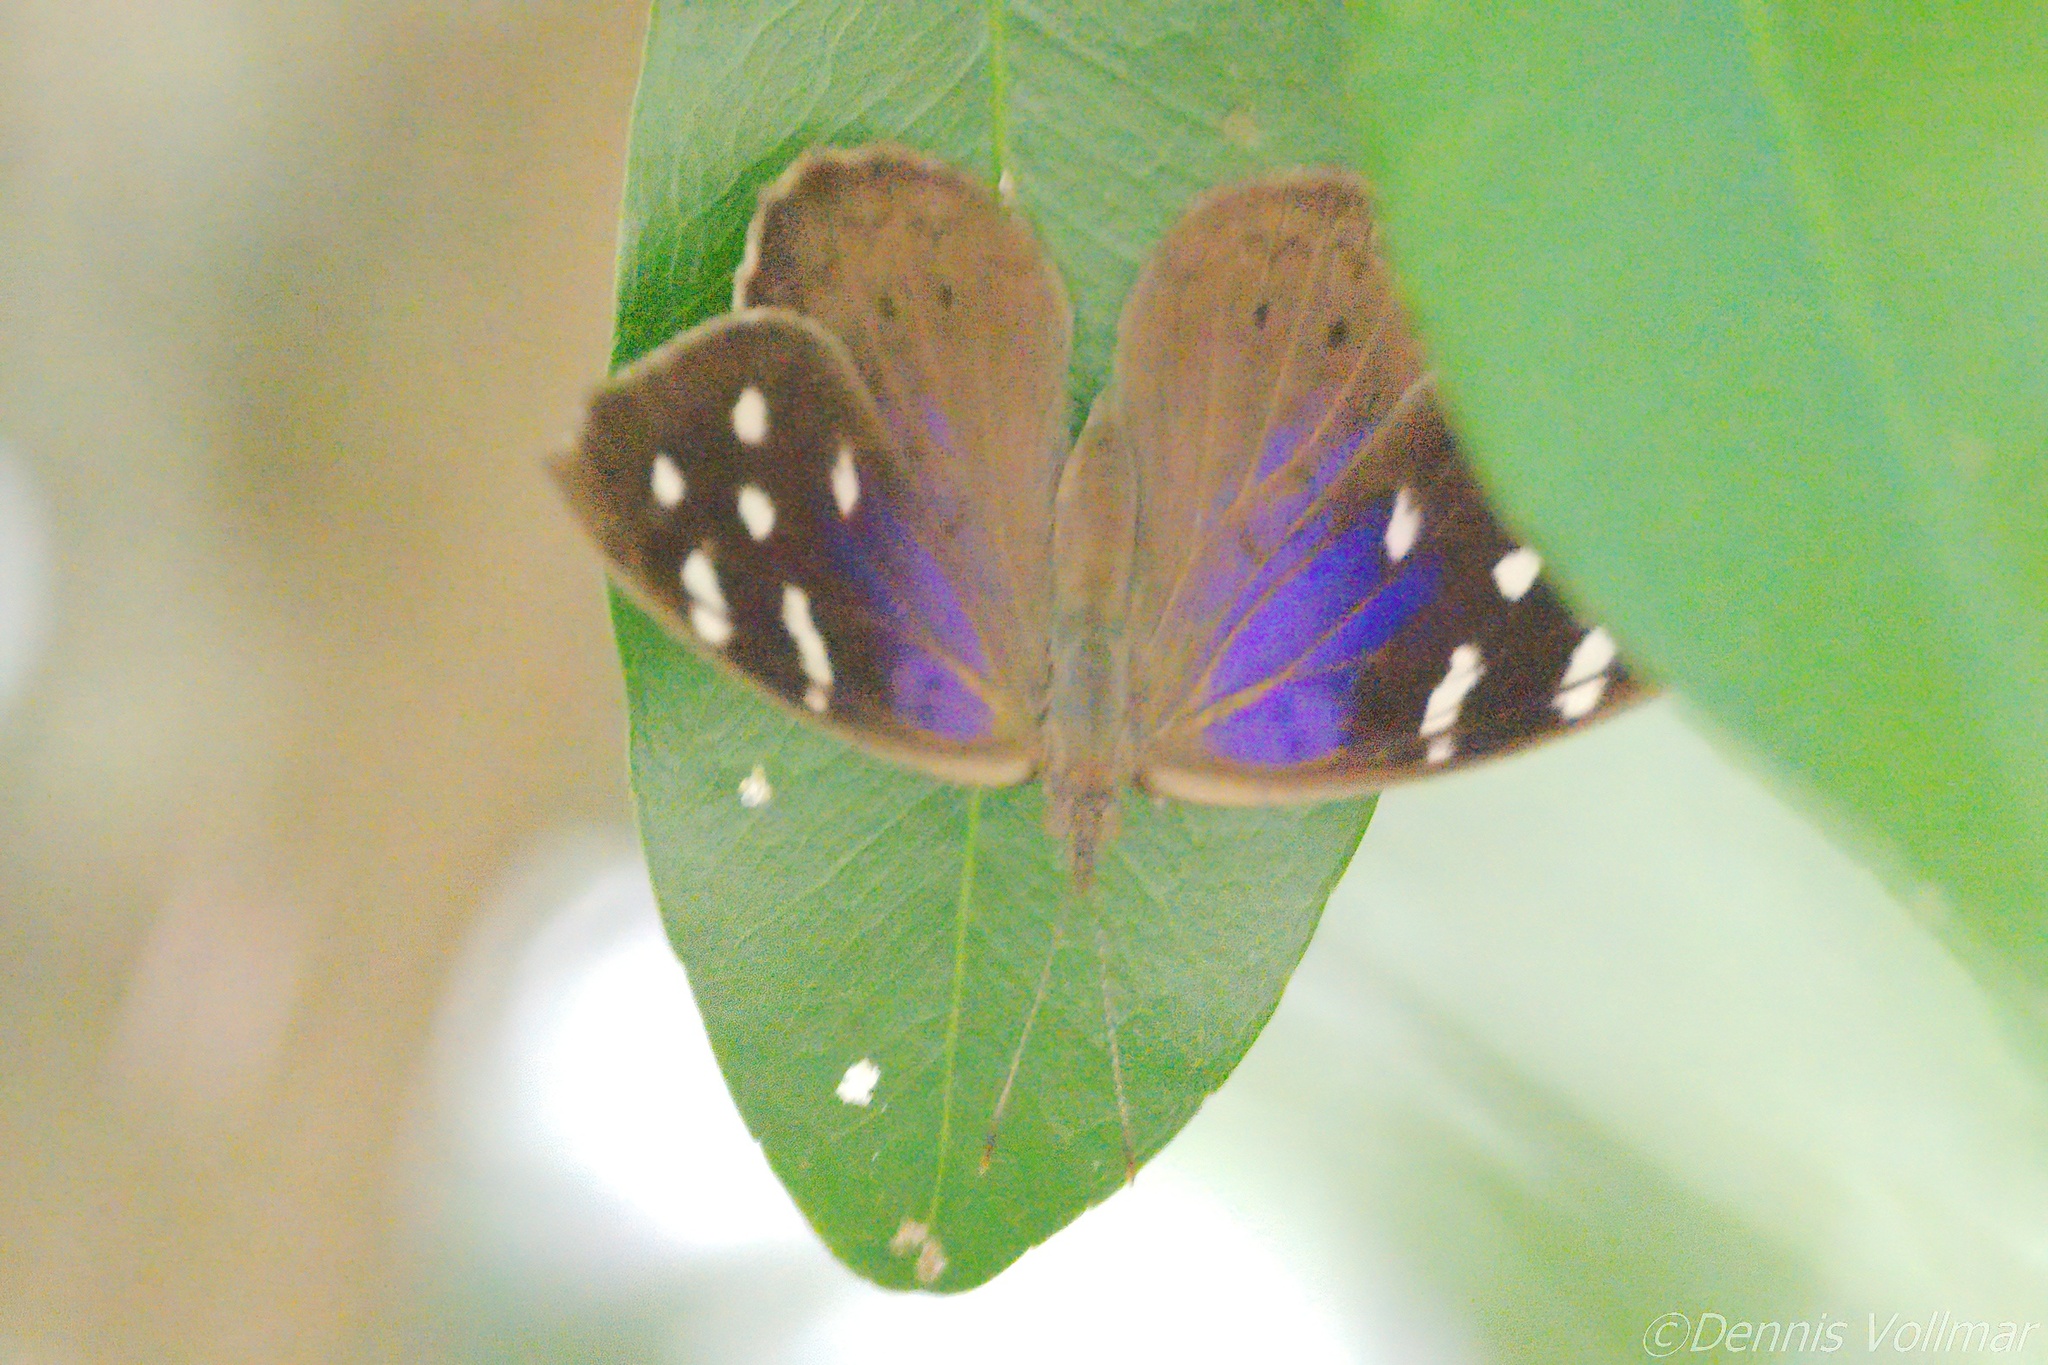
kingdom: Animalia
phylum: Arthropoda
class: Insecta
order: Lepidoptera
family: Nymphalidae
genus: Eunica
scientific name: Eunica tatila
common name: Florida purplewing
